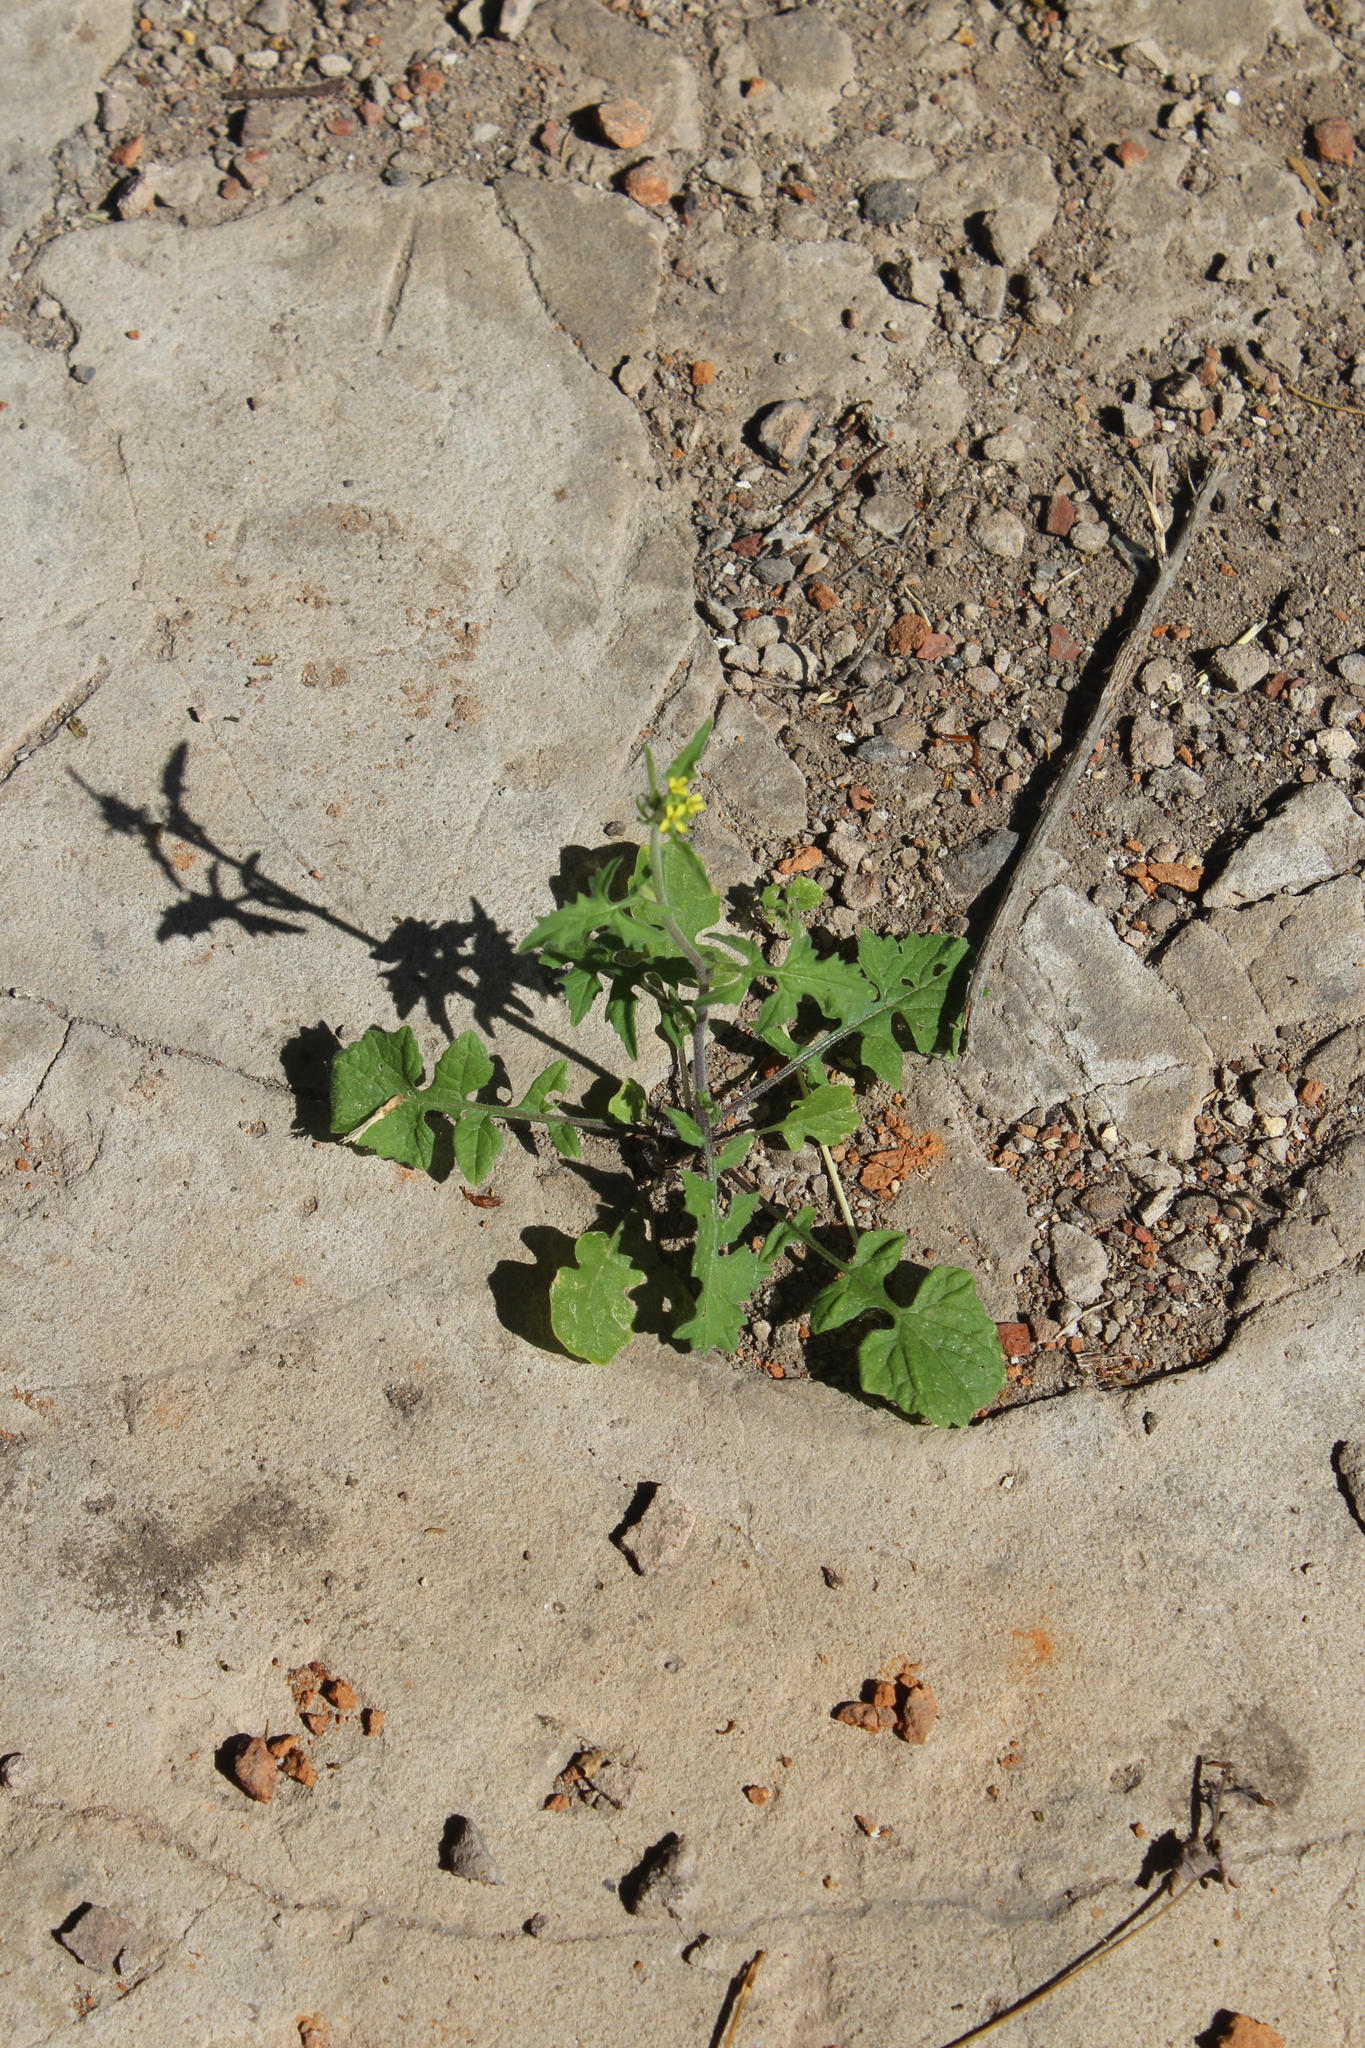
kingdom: Plantae
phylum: Tracheophyta
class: Magnoliopsida
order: Brassicales
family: Brassicaceae
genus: Sisymbrium
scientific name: Sisymbrium officinale
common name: Hedge mustard
